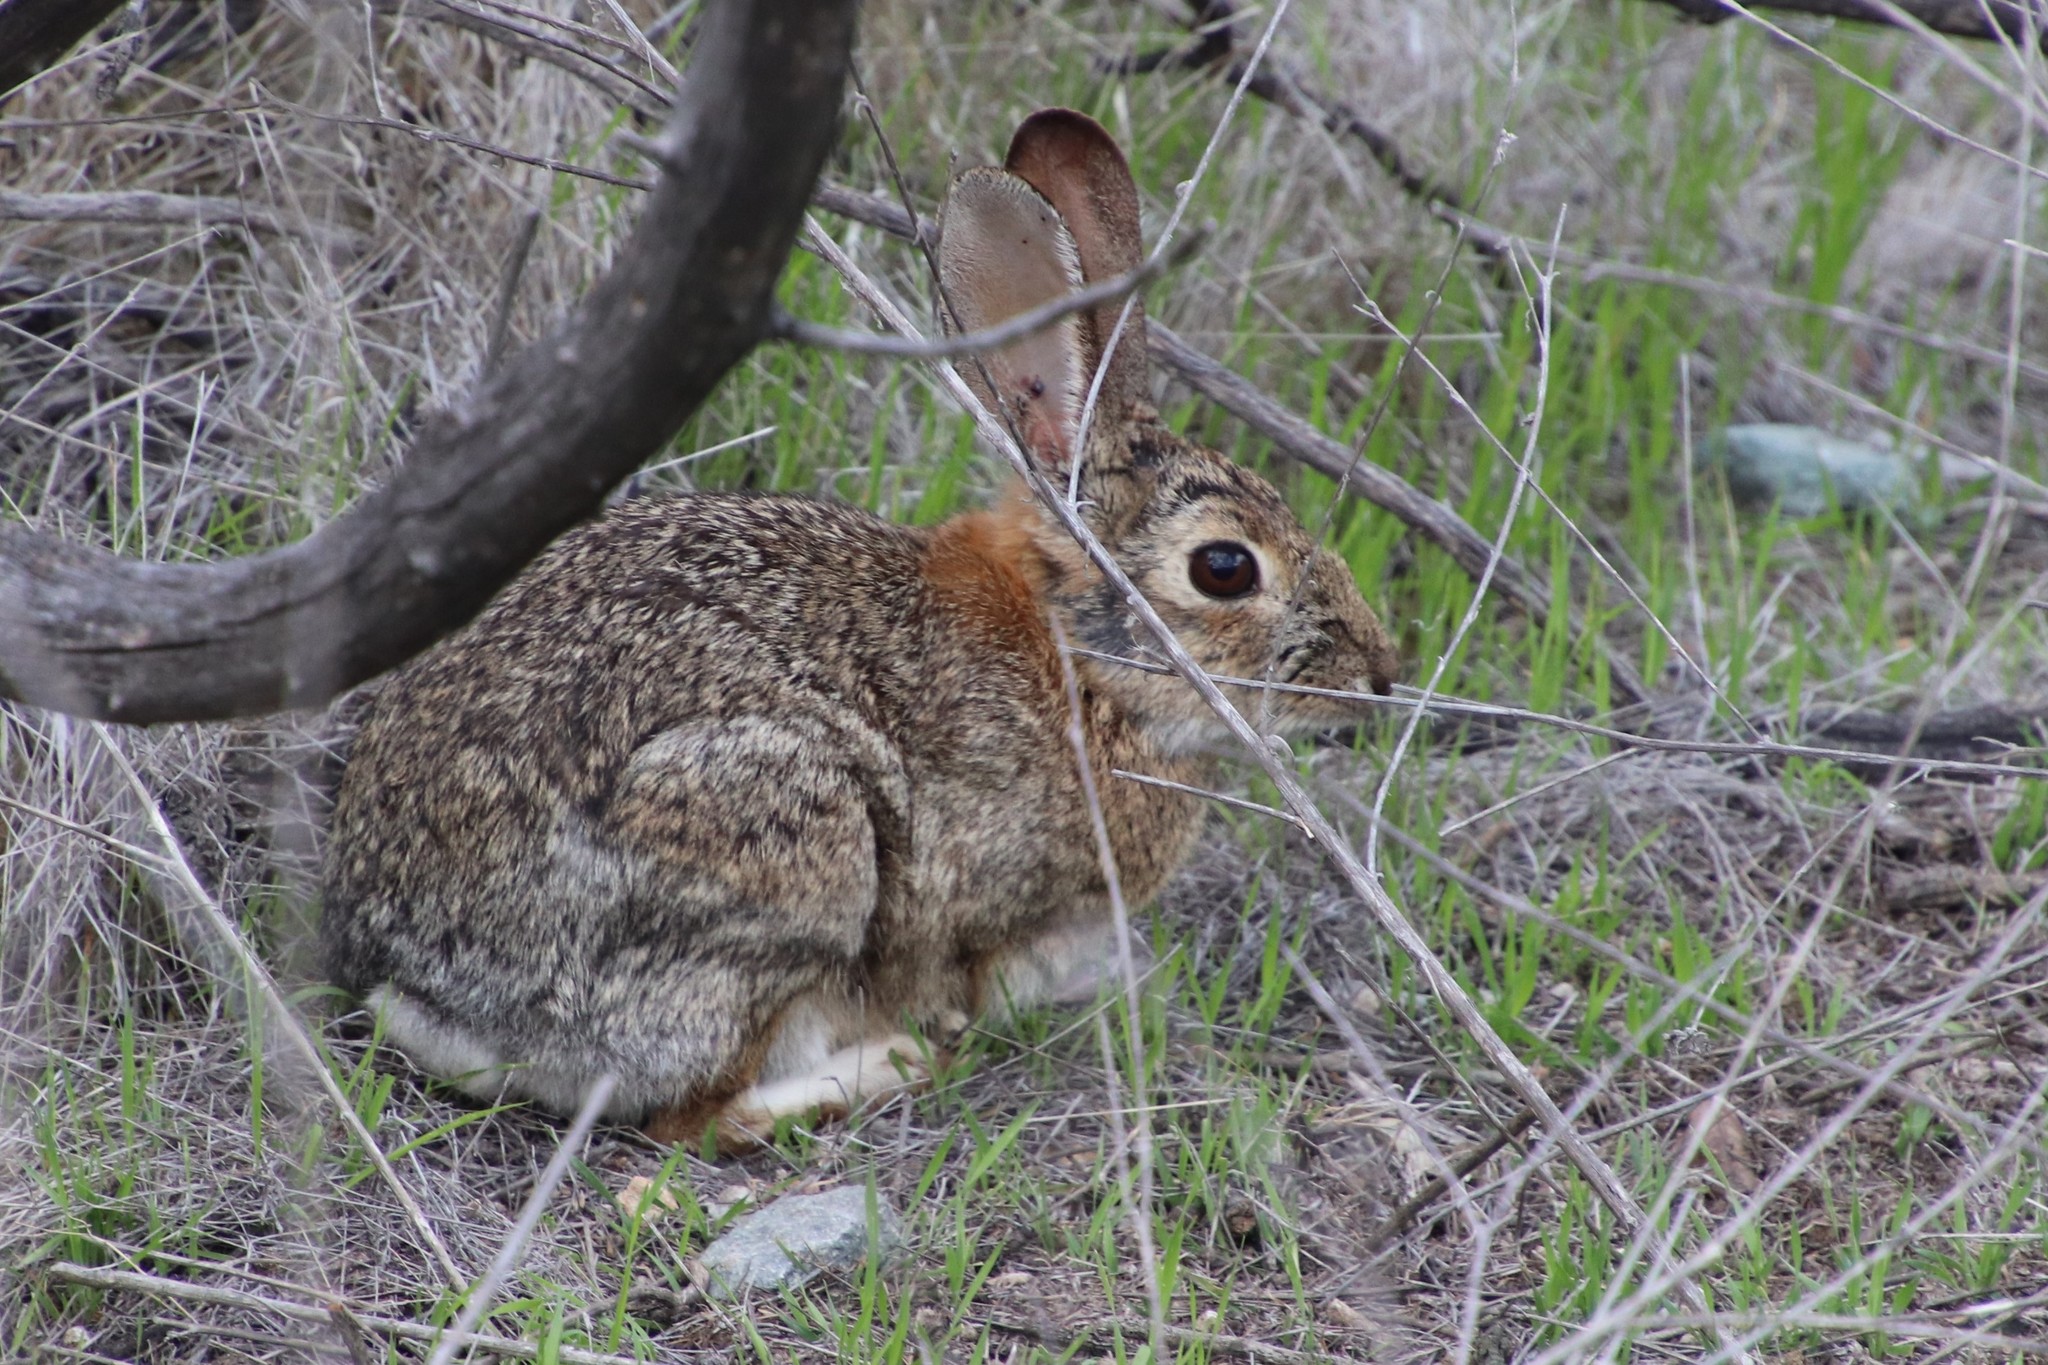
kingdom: Animalia
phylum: Chordata
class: Mammalia
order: Lagomorpha
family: Leporidae
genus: Sylvilagus
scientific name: Sylvilagus audubonii
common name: Desert cottontail
